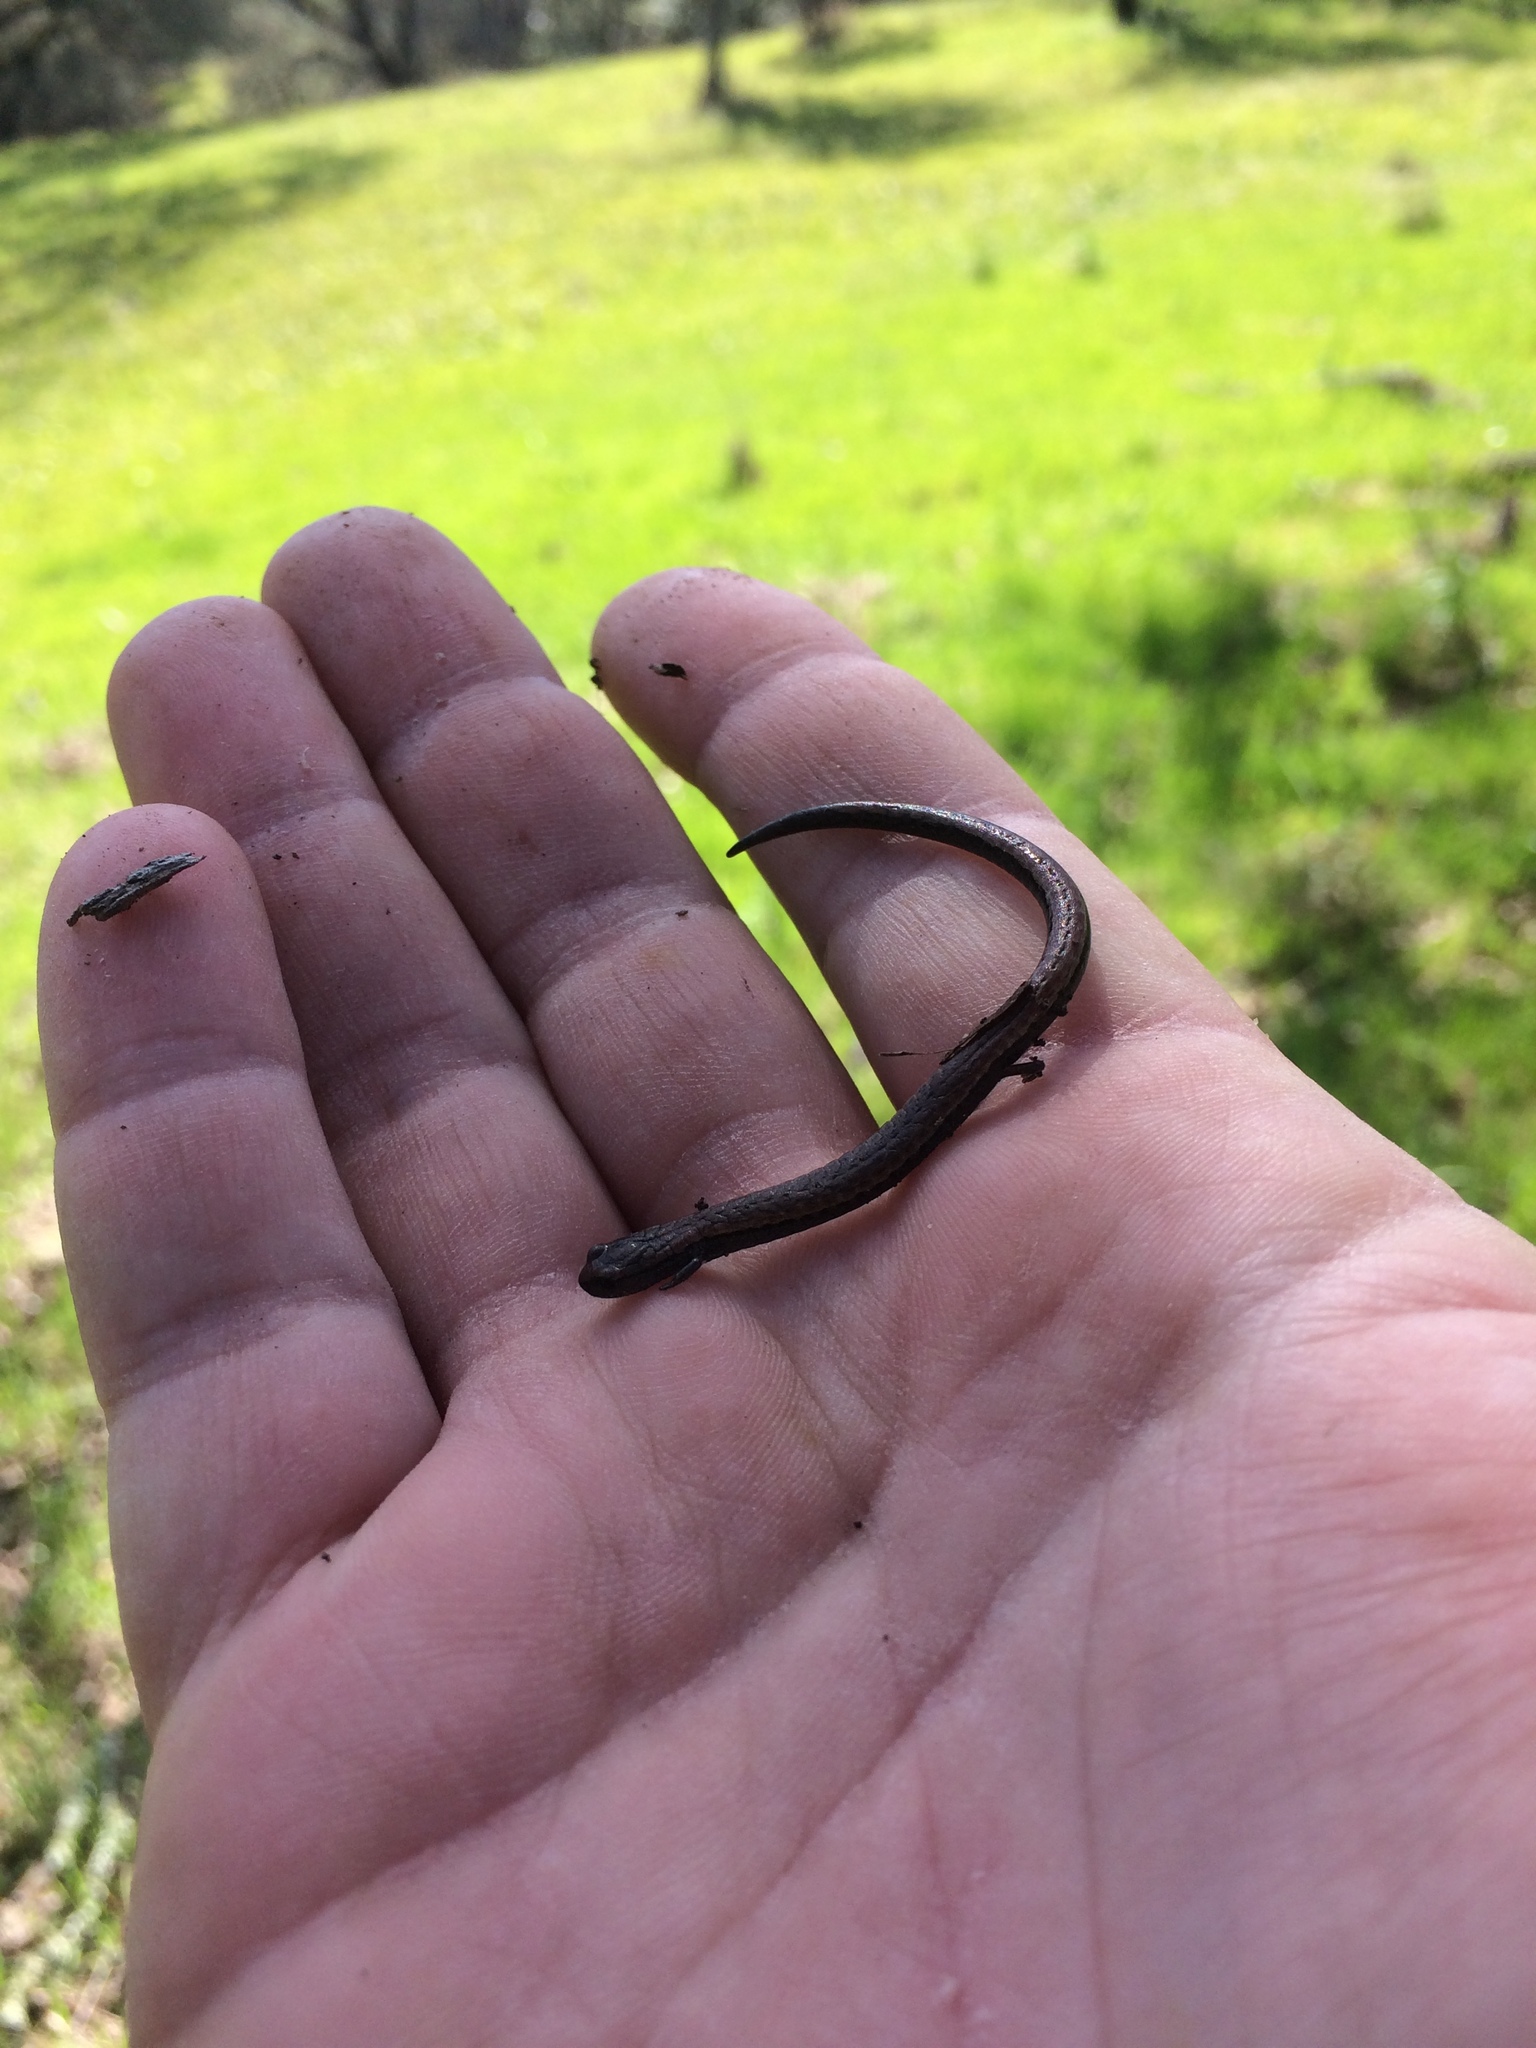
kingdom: Animalia
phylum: Chordata
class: Amphibia
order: Caudata
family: Plethodontidae
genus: Batrachoseps
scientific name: Batrachoseps attenuatus
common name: California slender salamander
